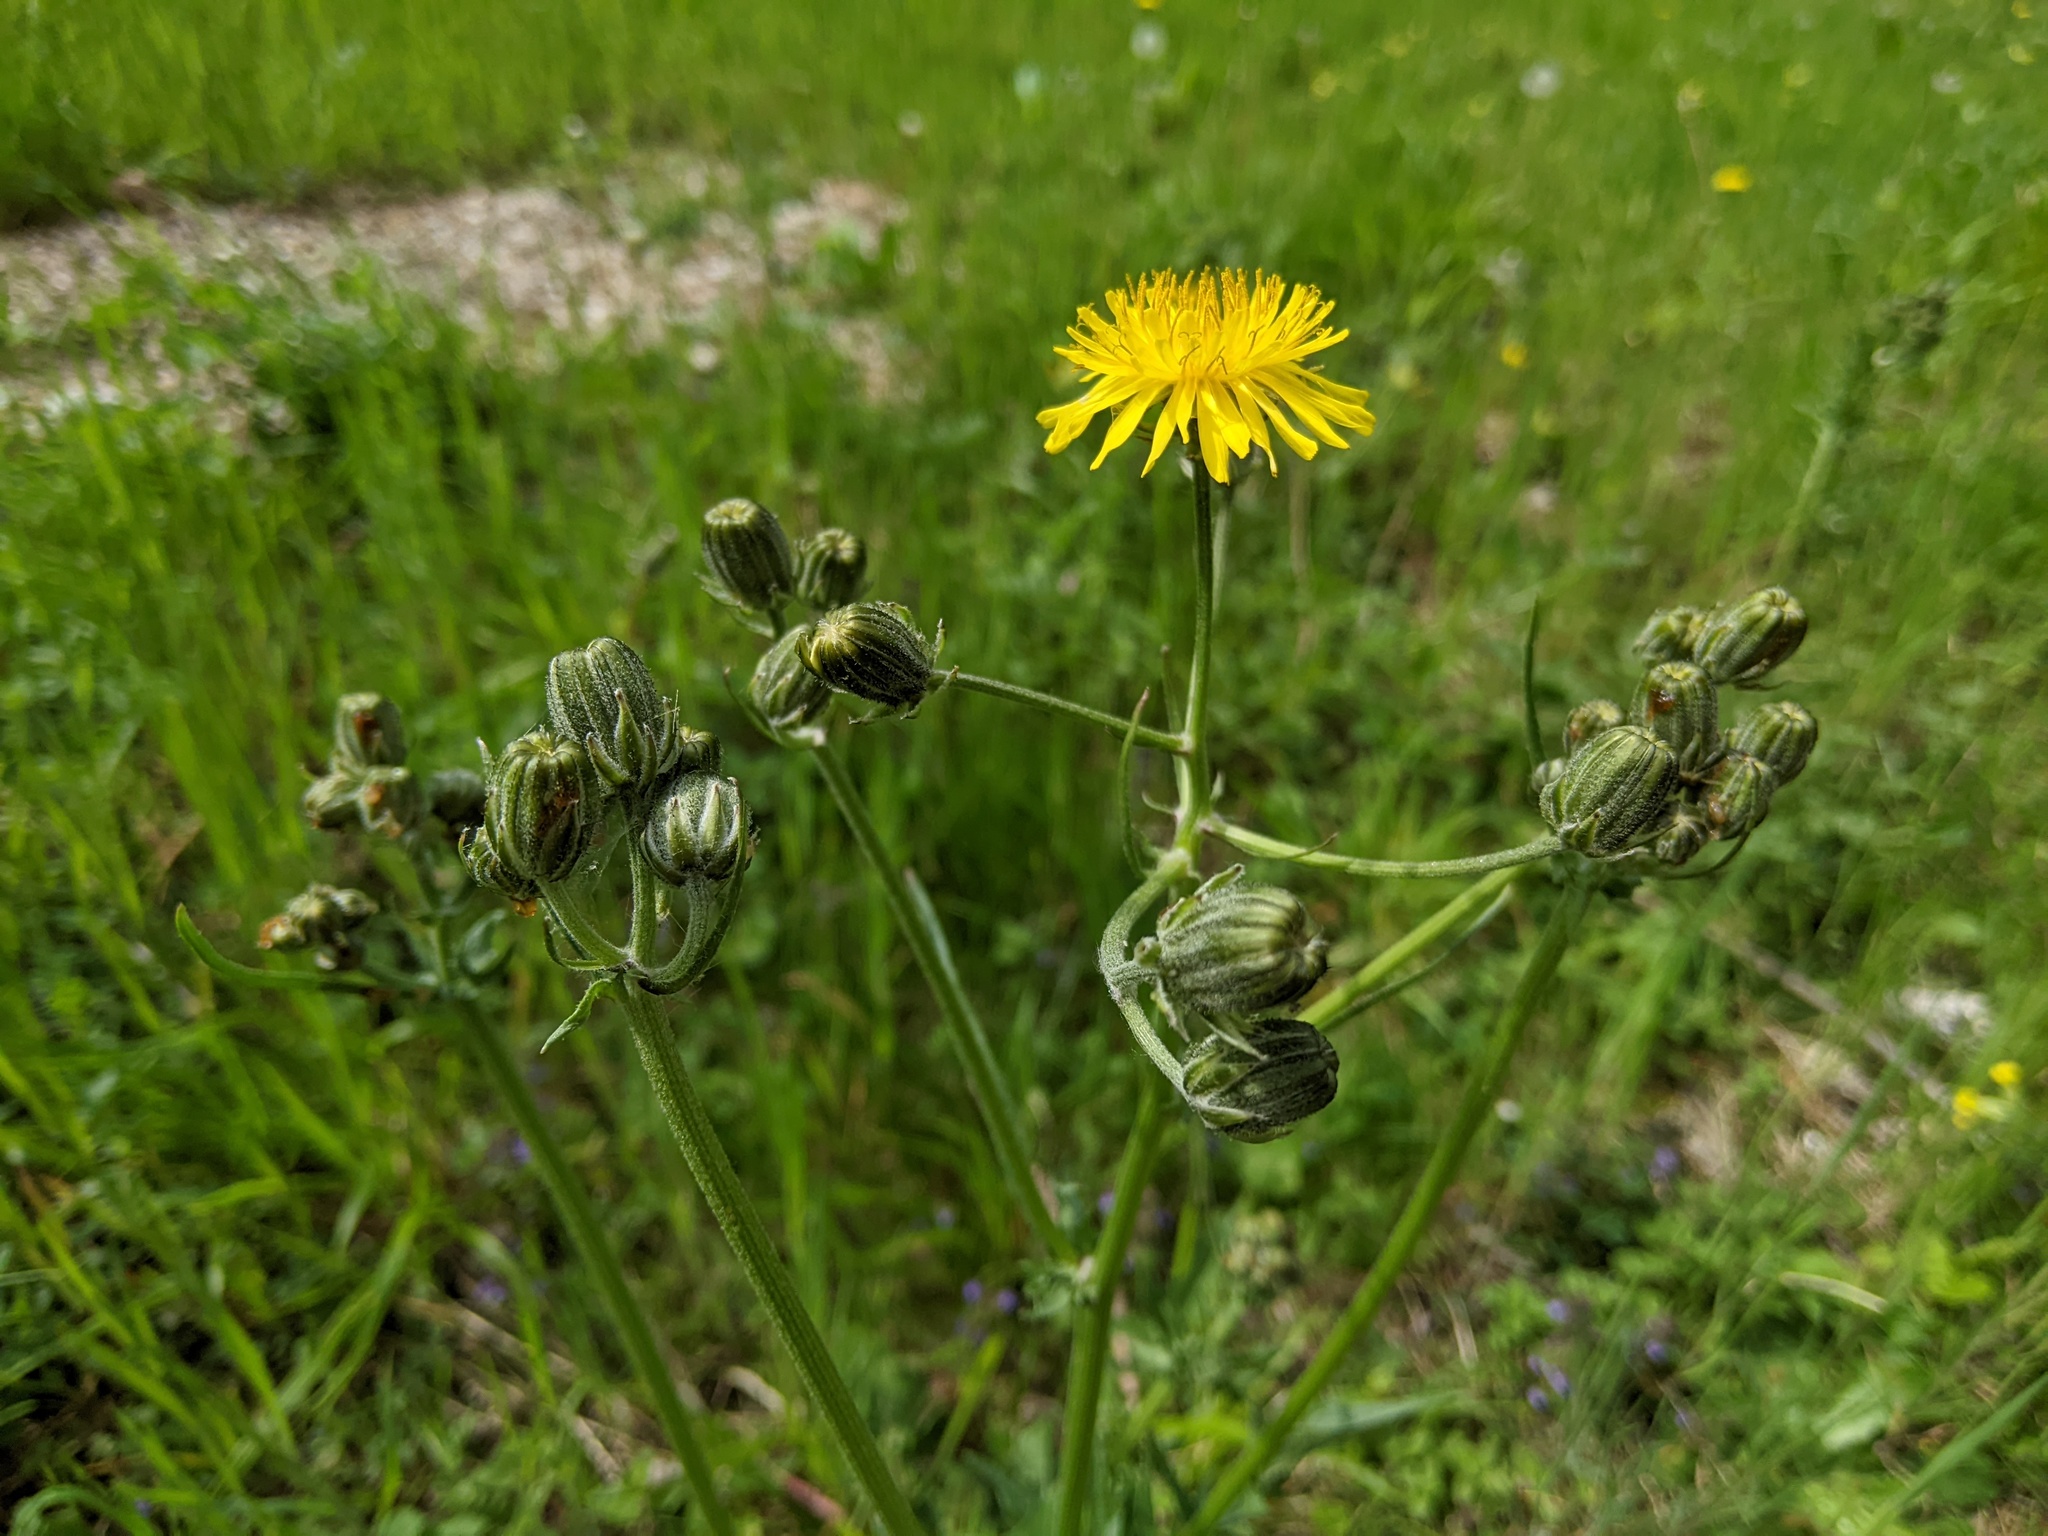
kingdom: Plantae
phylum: Tracheophyta
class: Magnoliopsida
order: Asterales
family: Asteraceae
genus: Crepis
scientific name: Crepis vesicaria
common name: Beaked hawksbeard
